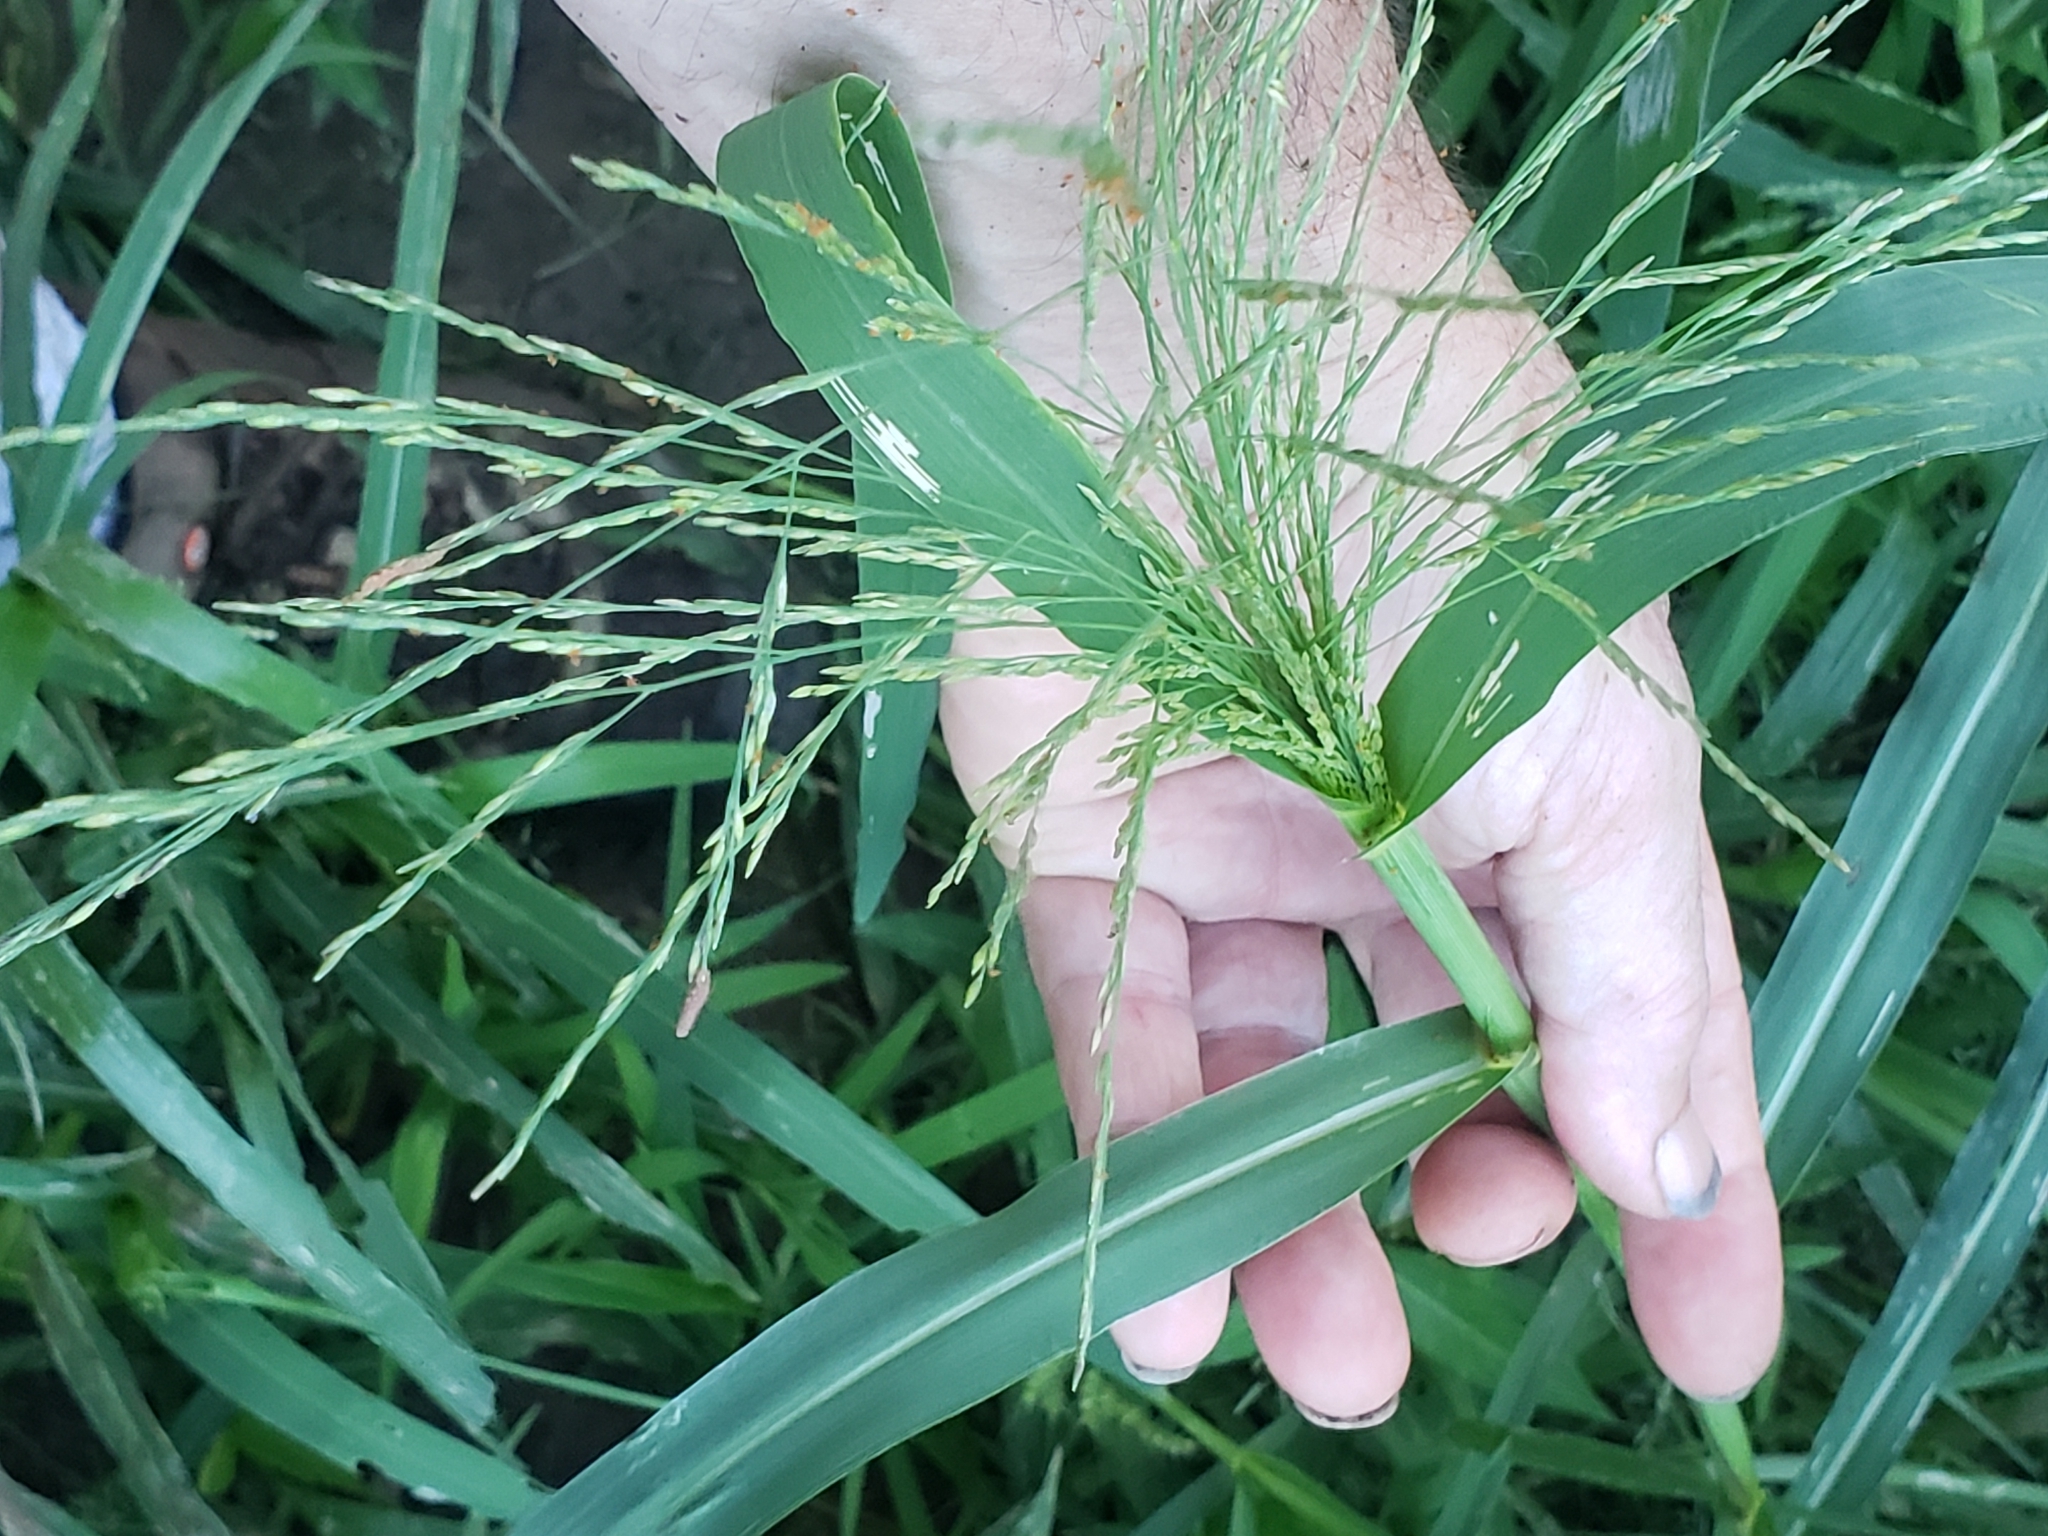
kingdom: Plantae
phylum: Tracheophyta
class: Liliopsida
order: Poales
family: Poaceae
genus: Panicum
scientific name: Panicum dichotomiflorum
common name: Autumn millet
